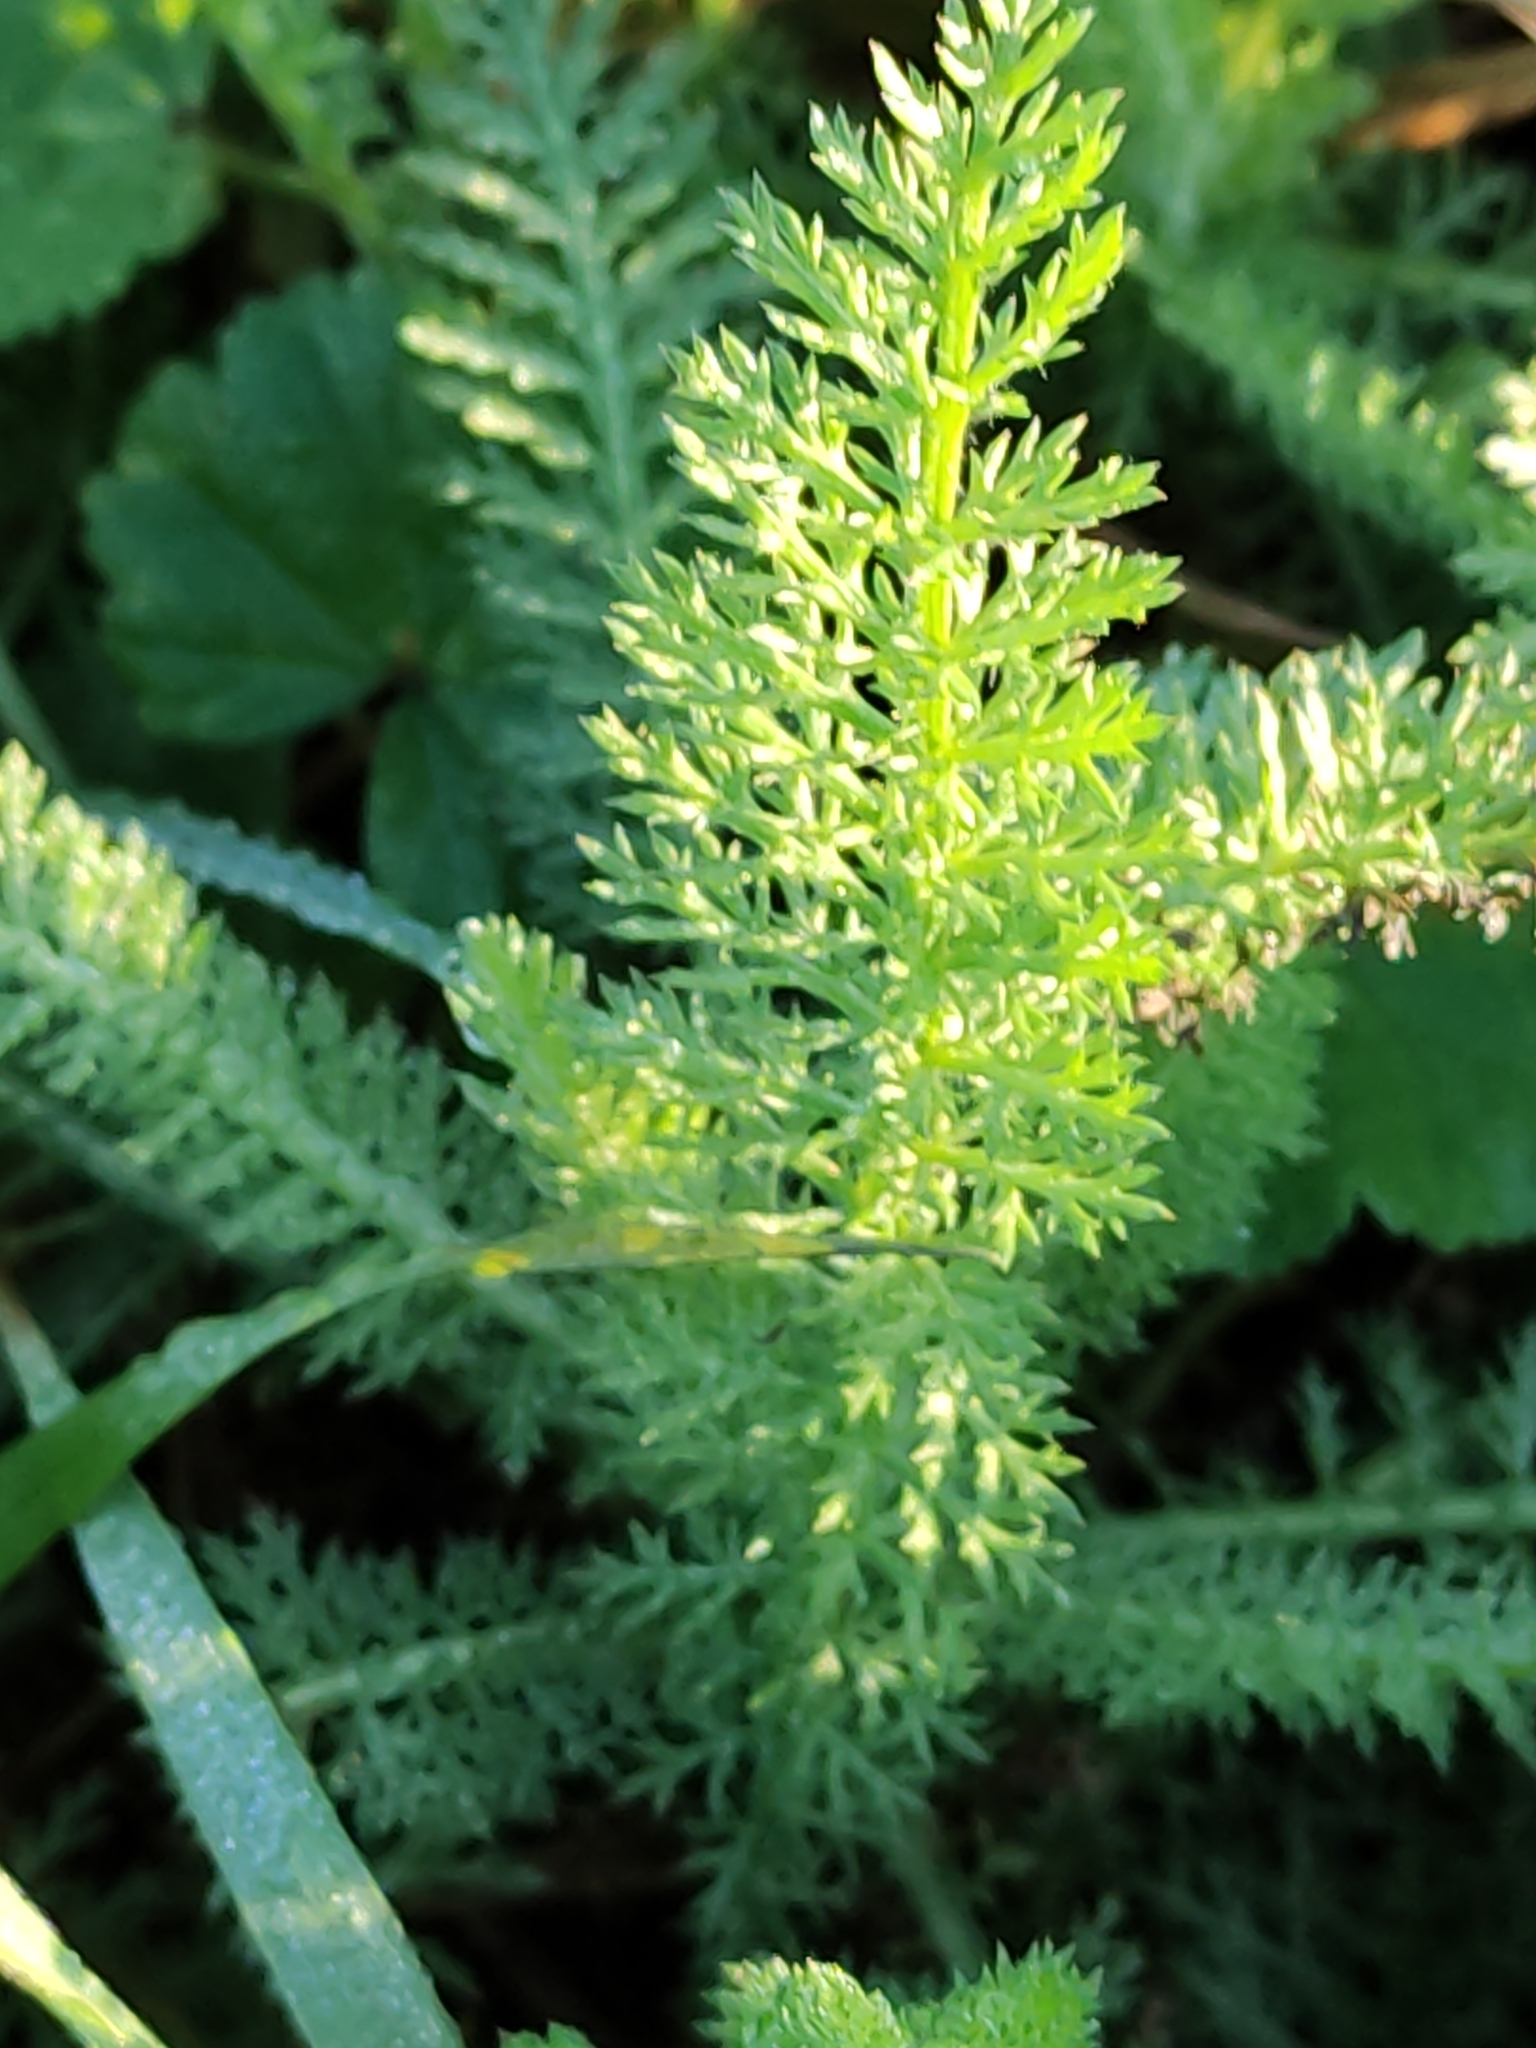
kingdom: Plantae
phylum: Tracheophyta
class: Magnoliopsida
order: Asterales
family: Asteraceae
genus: Achillea
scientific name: Achillea millefolium
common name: Yarrow
